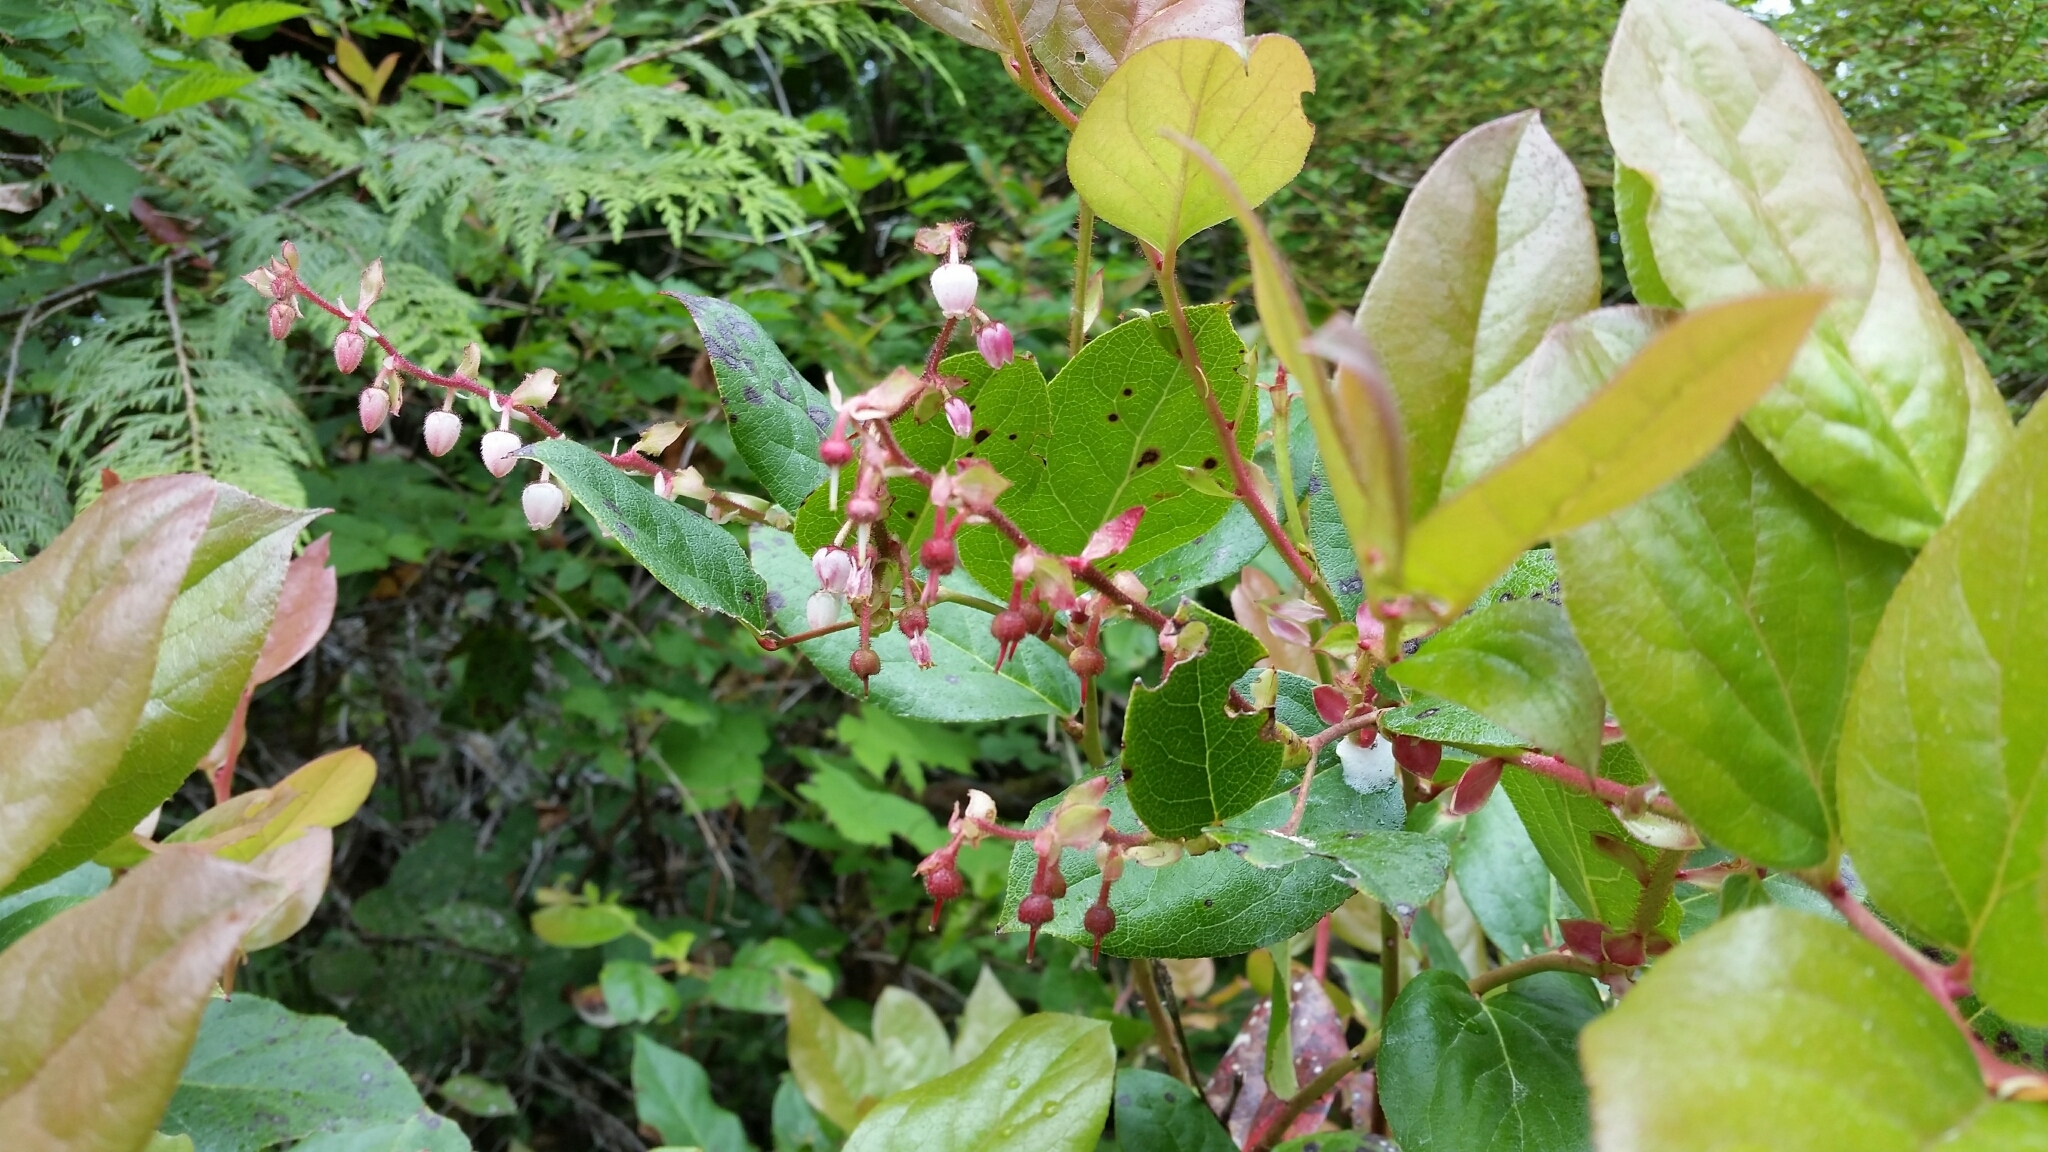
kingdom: Plantae
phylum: Tracheophyta
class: Magnoliopsida
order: Ericales
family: Ericaceae
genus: Gaultheria
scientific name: Gaultheria shallon
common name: Shallon
